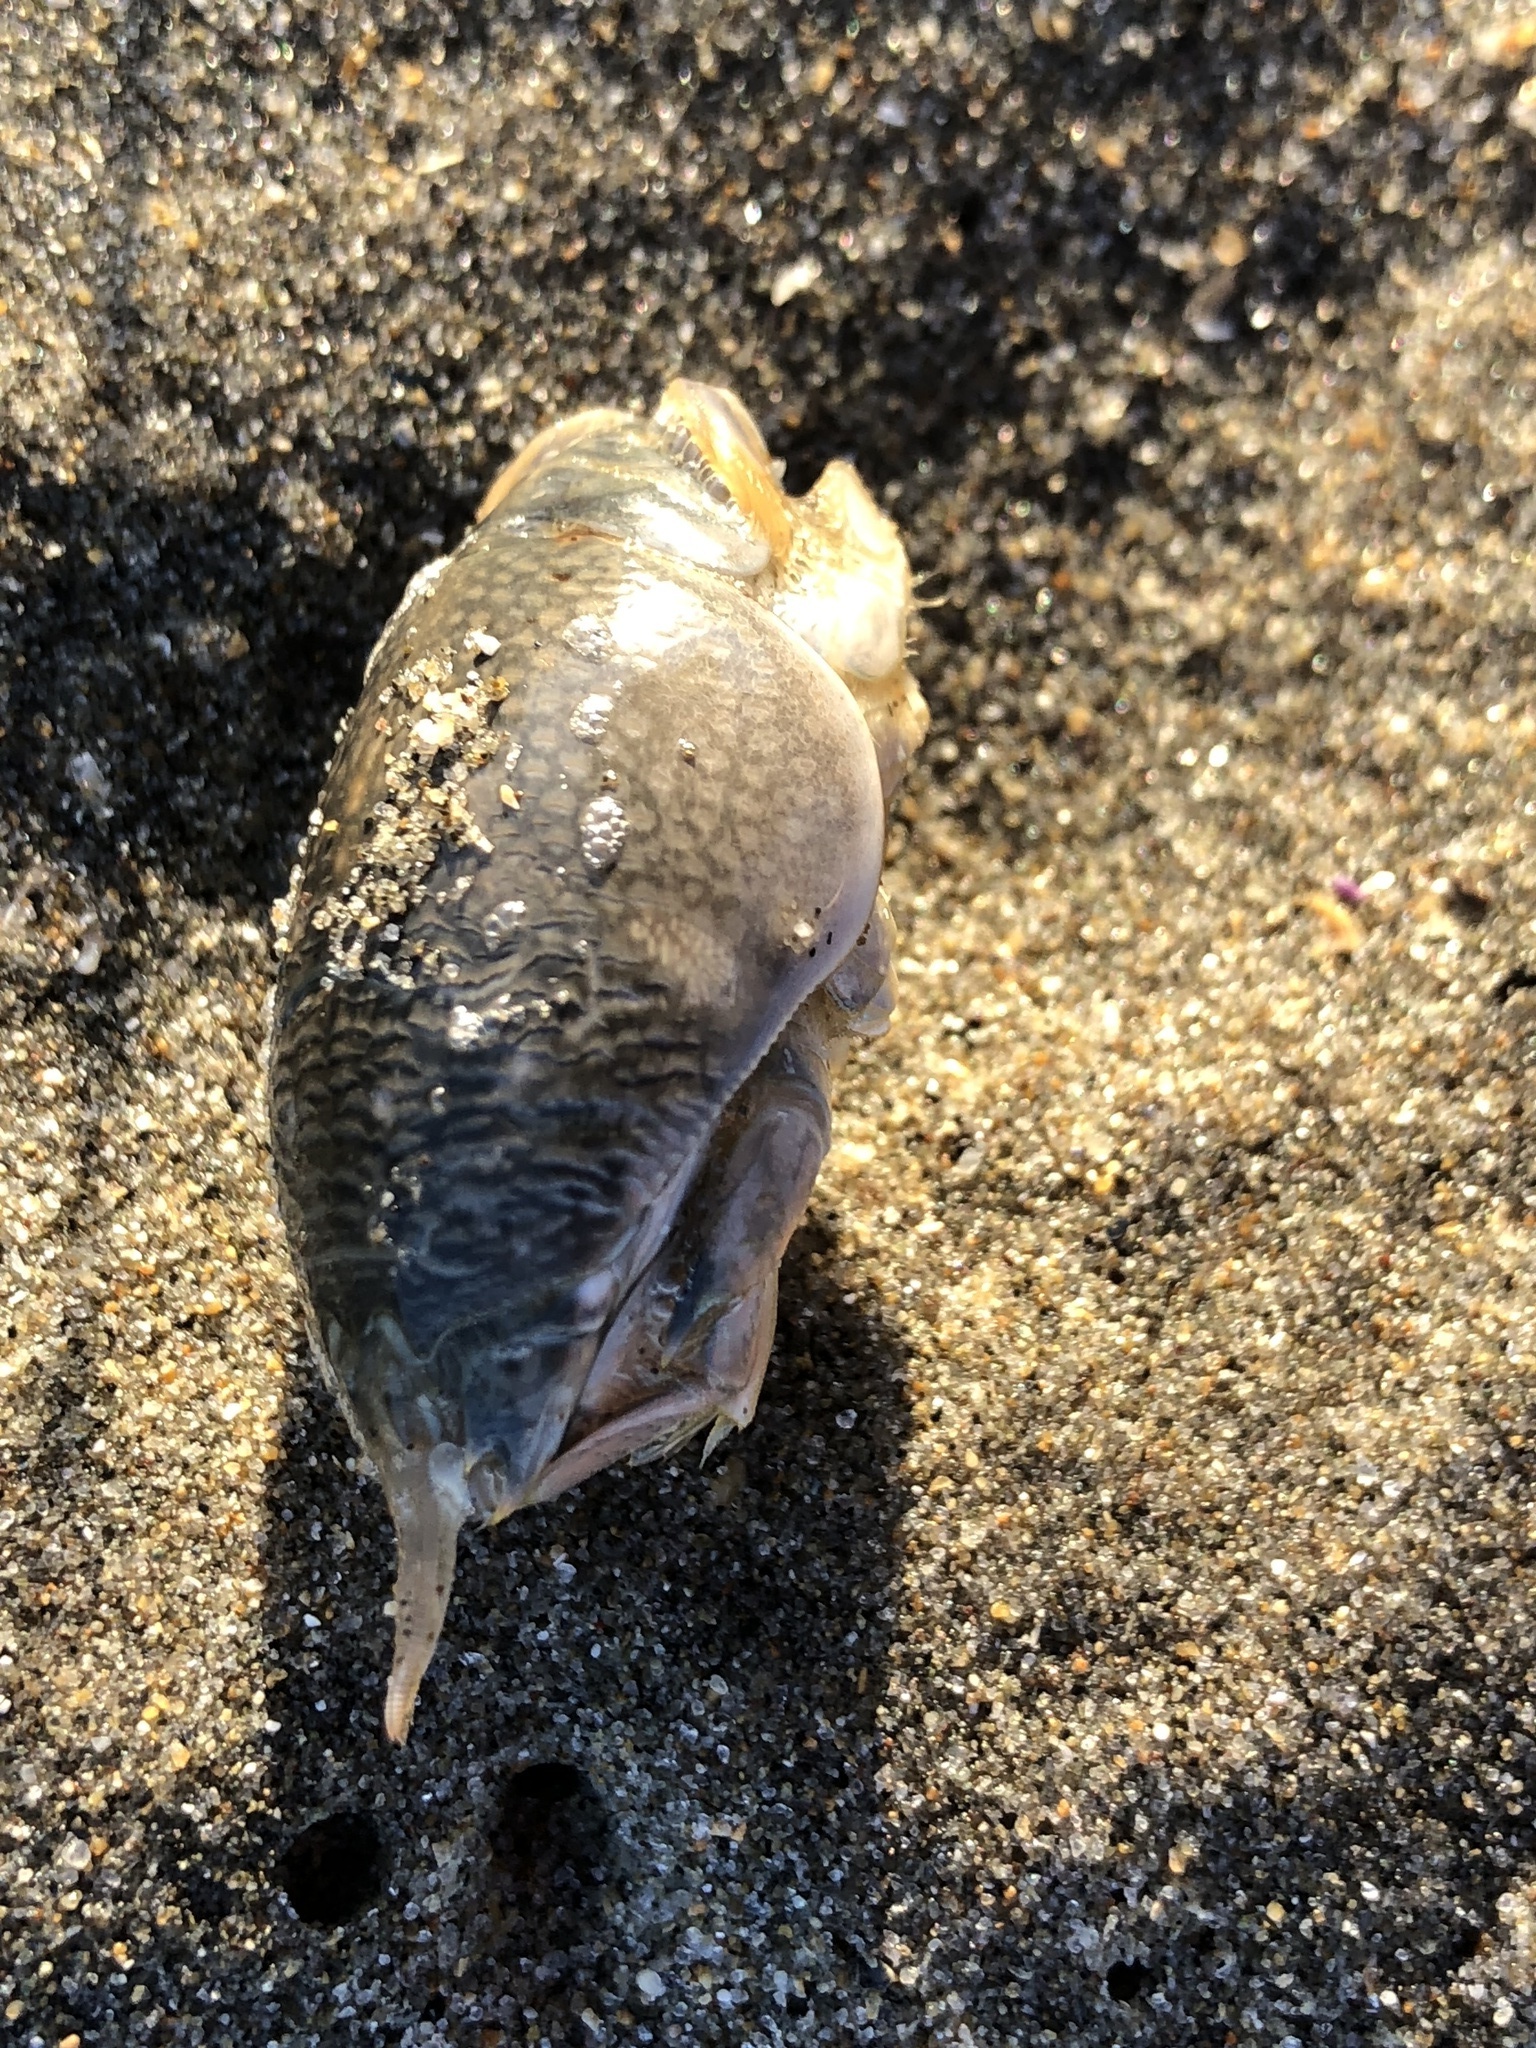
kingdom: Animalia
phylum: Arthropoda
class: Malacostraca
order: Decapoda
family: Hippidae
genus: Emerita
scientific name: Emerita analoga
